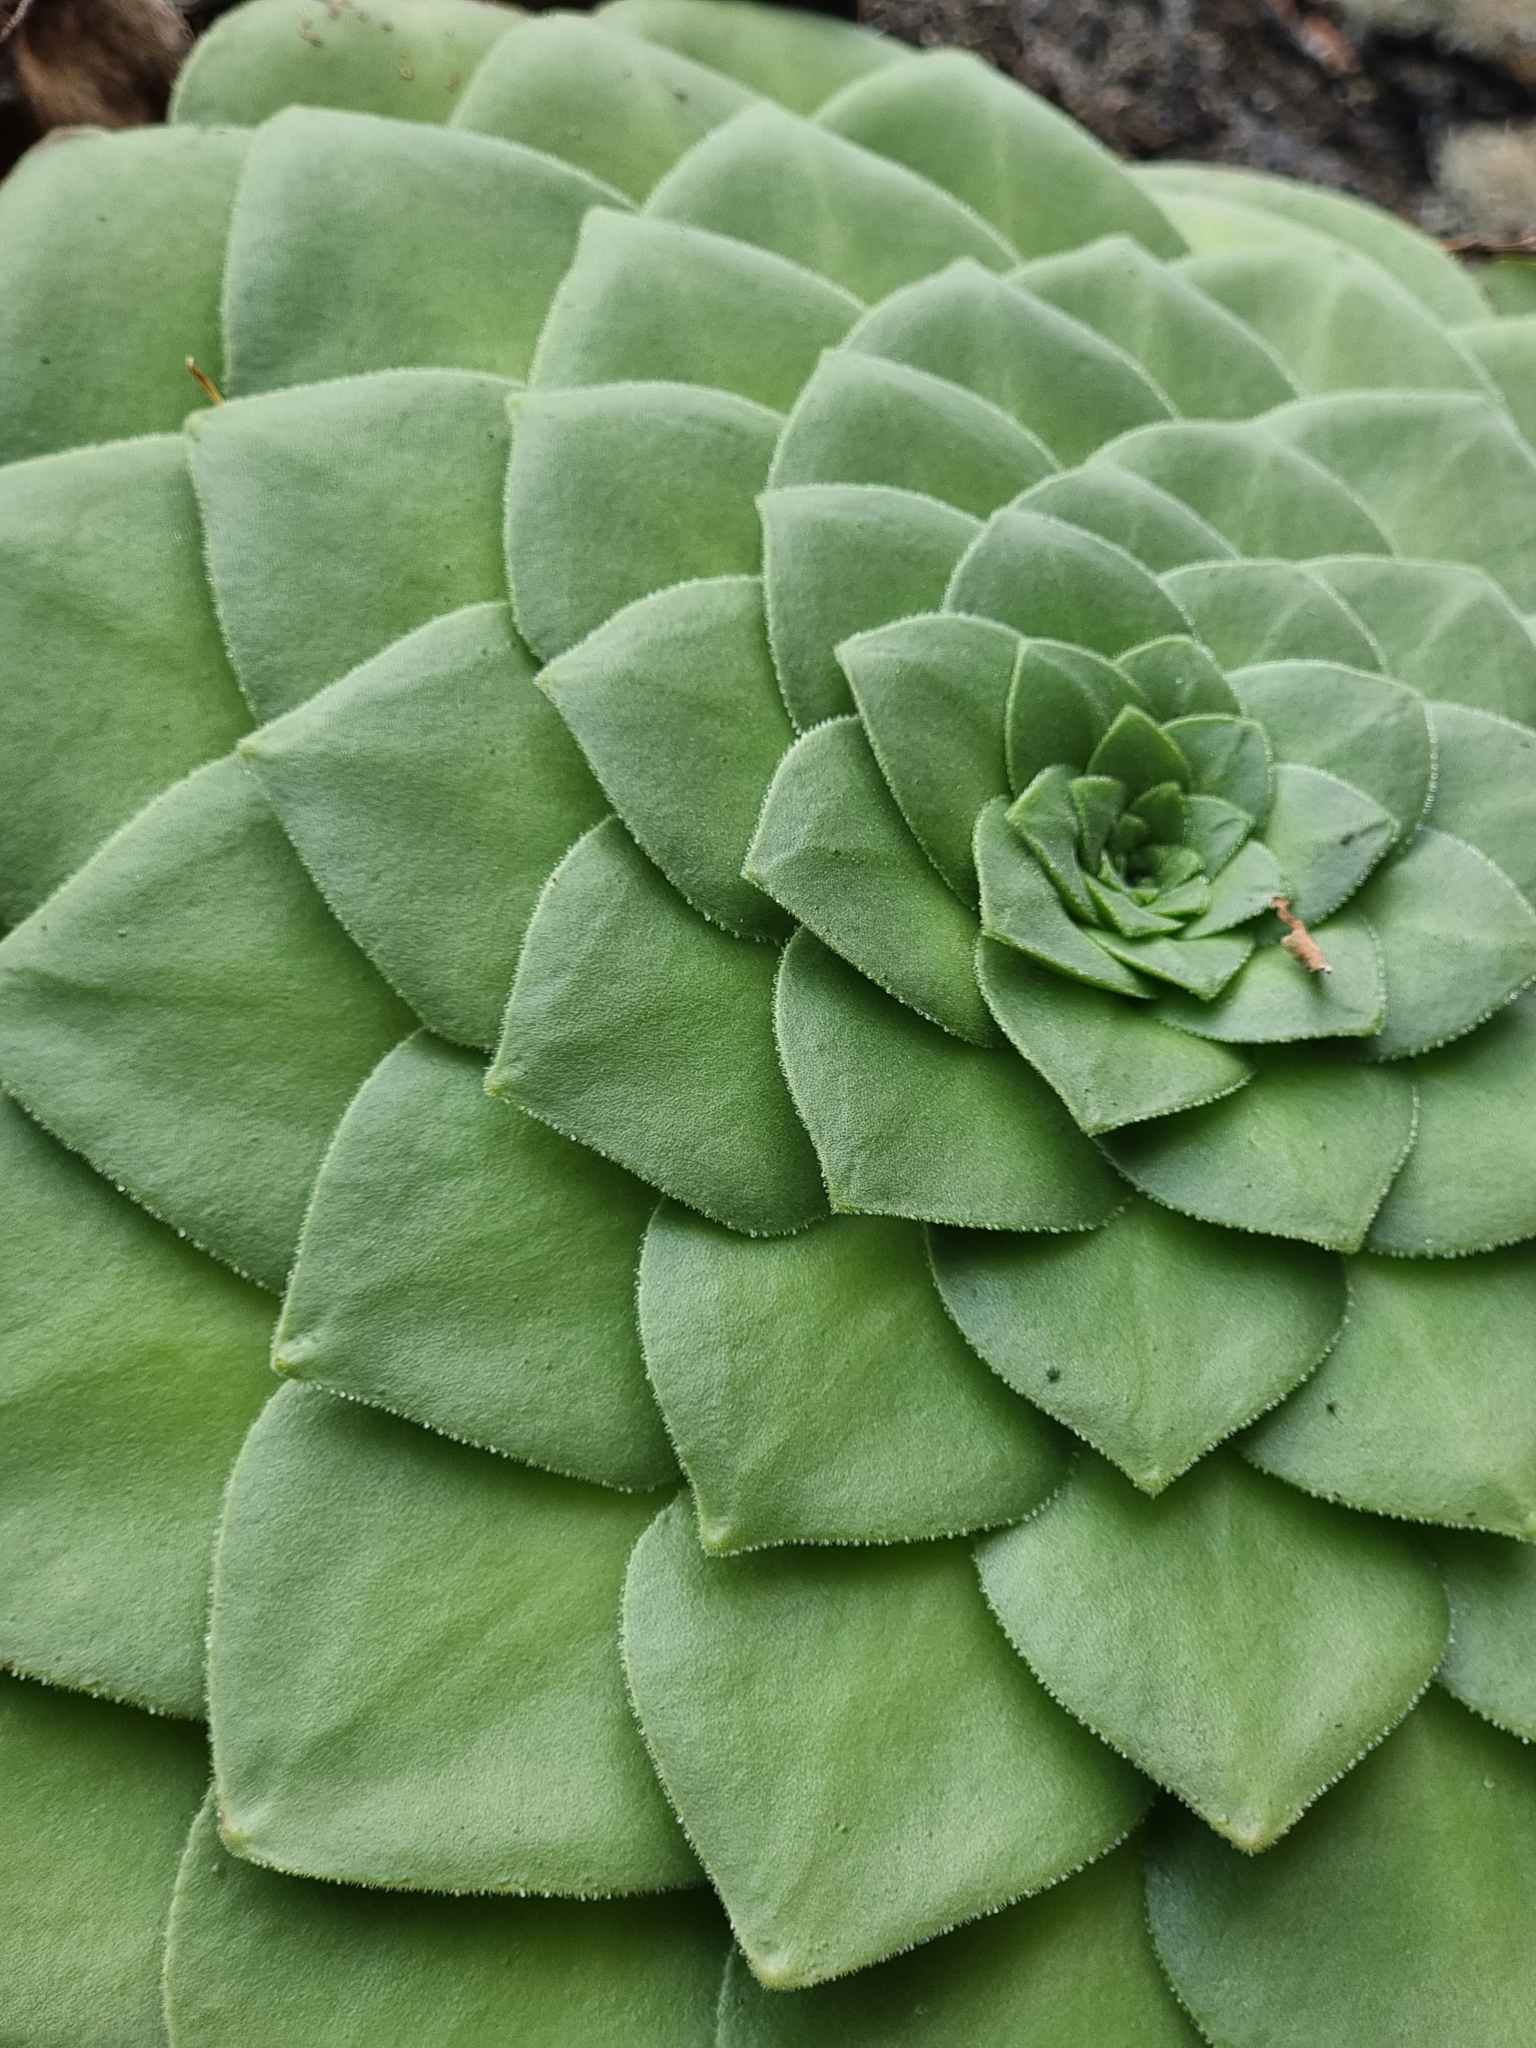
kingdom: Plantae
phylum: Tracheophyta
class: Magnoliopsida
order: Saxifragales
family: Crassulaceae
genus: Aeonium
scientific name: Aeonium glandulosum
